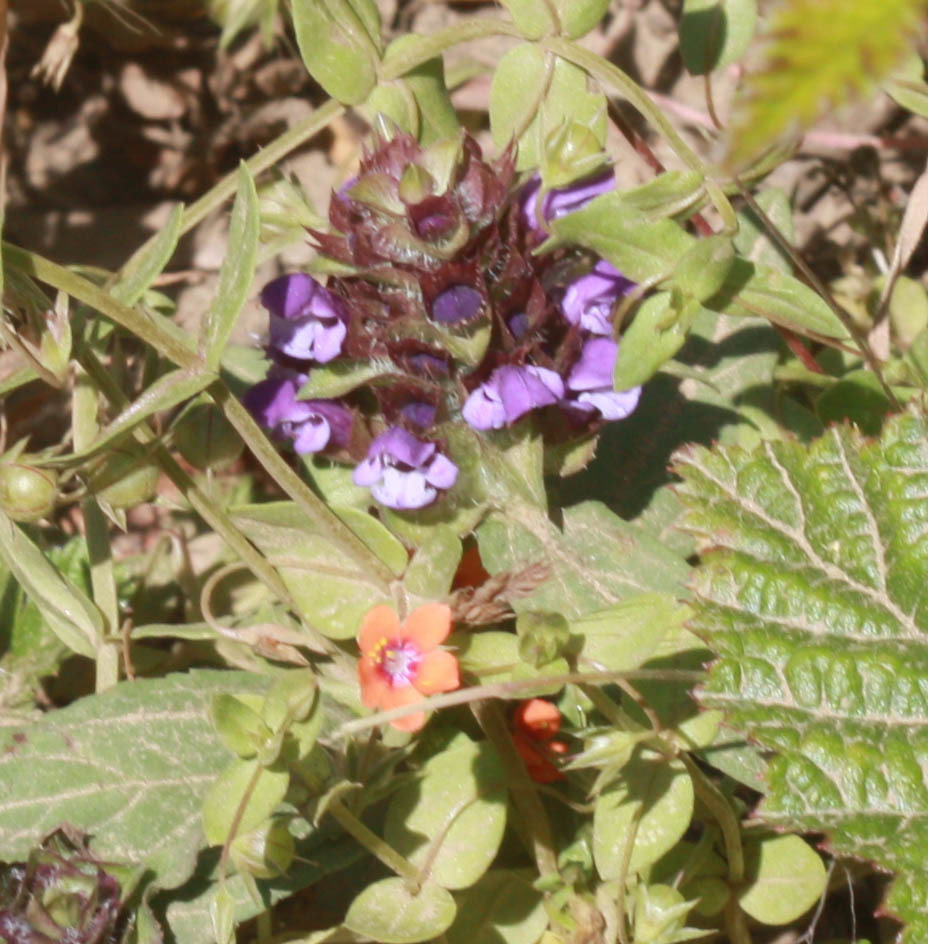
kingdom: Plantae
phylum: Tracheophyta
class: Magnoliopsida
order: Lamiales
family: Lamiaceae
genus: Prunella
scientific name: Prunella vulgaris
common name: Heal-all
